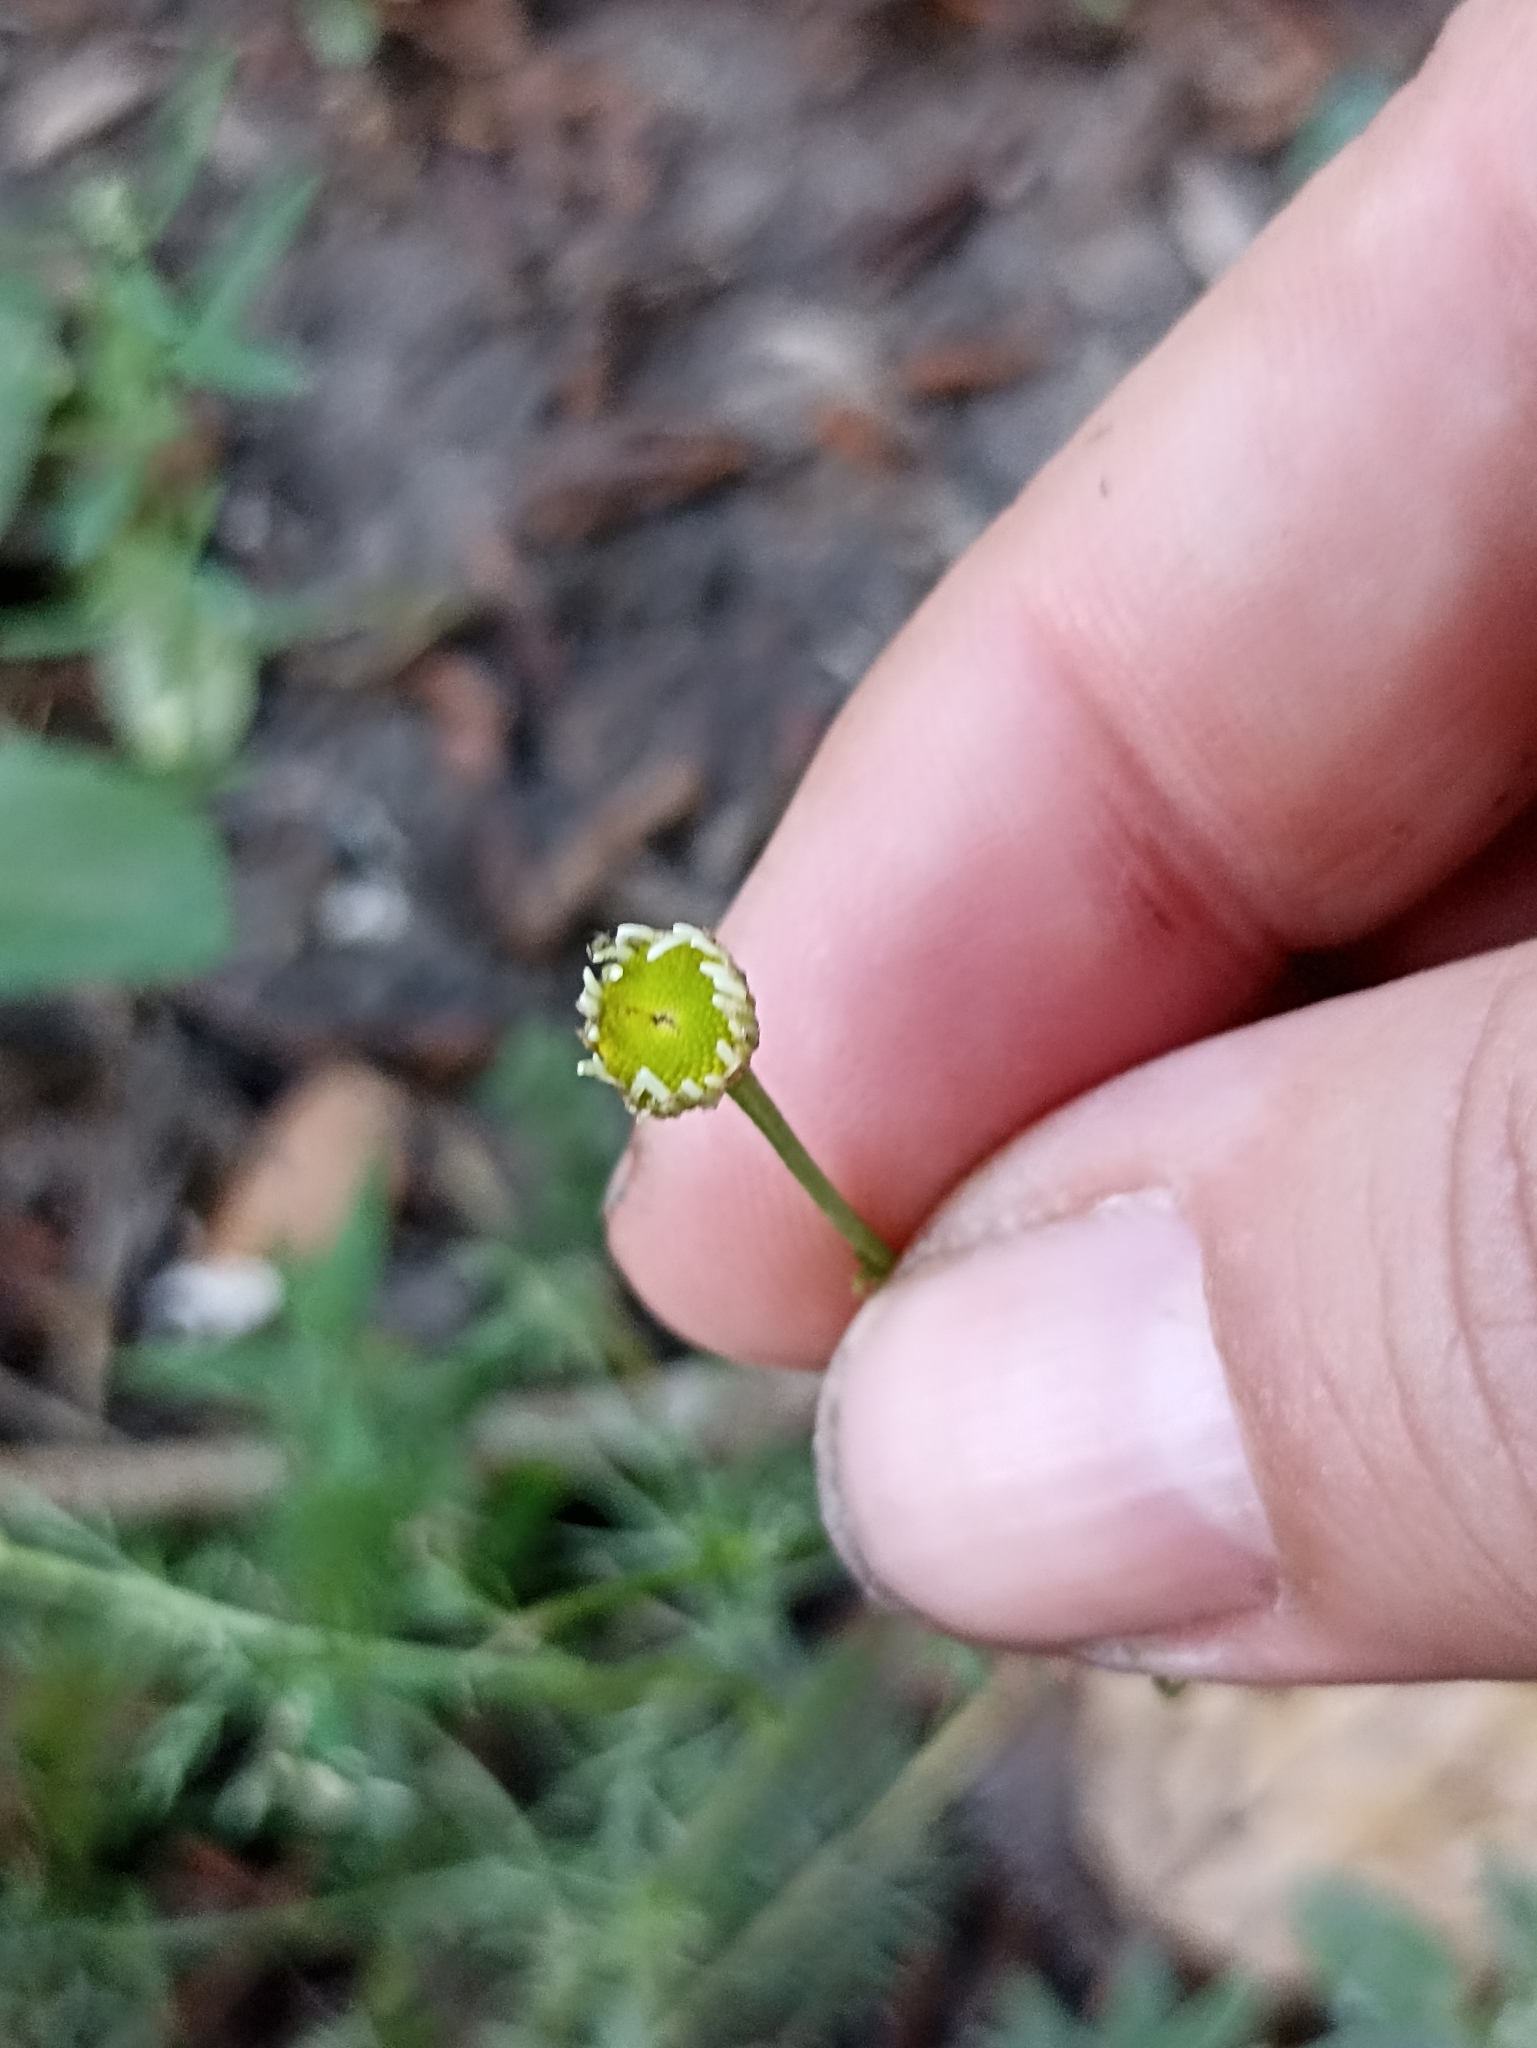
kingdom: Plantae
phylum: Tracheophyta
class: Magnoliopsida
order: Asterales
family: Asteraceae
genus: Tripleurospermum
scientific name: Tripleurospermum inodorum
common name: Scentless mayweed
